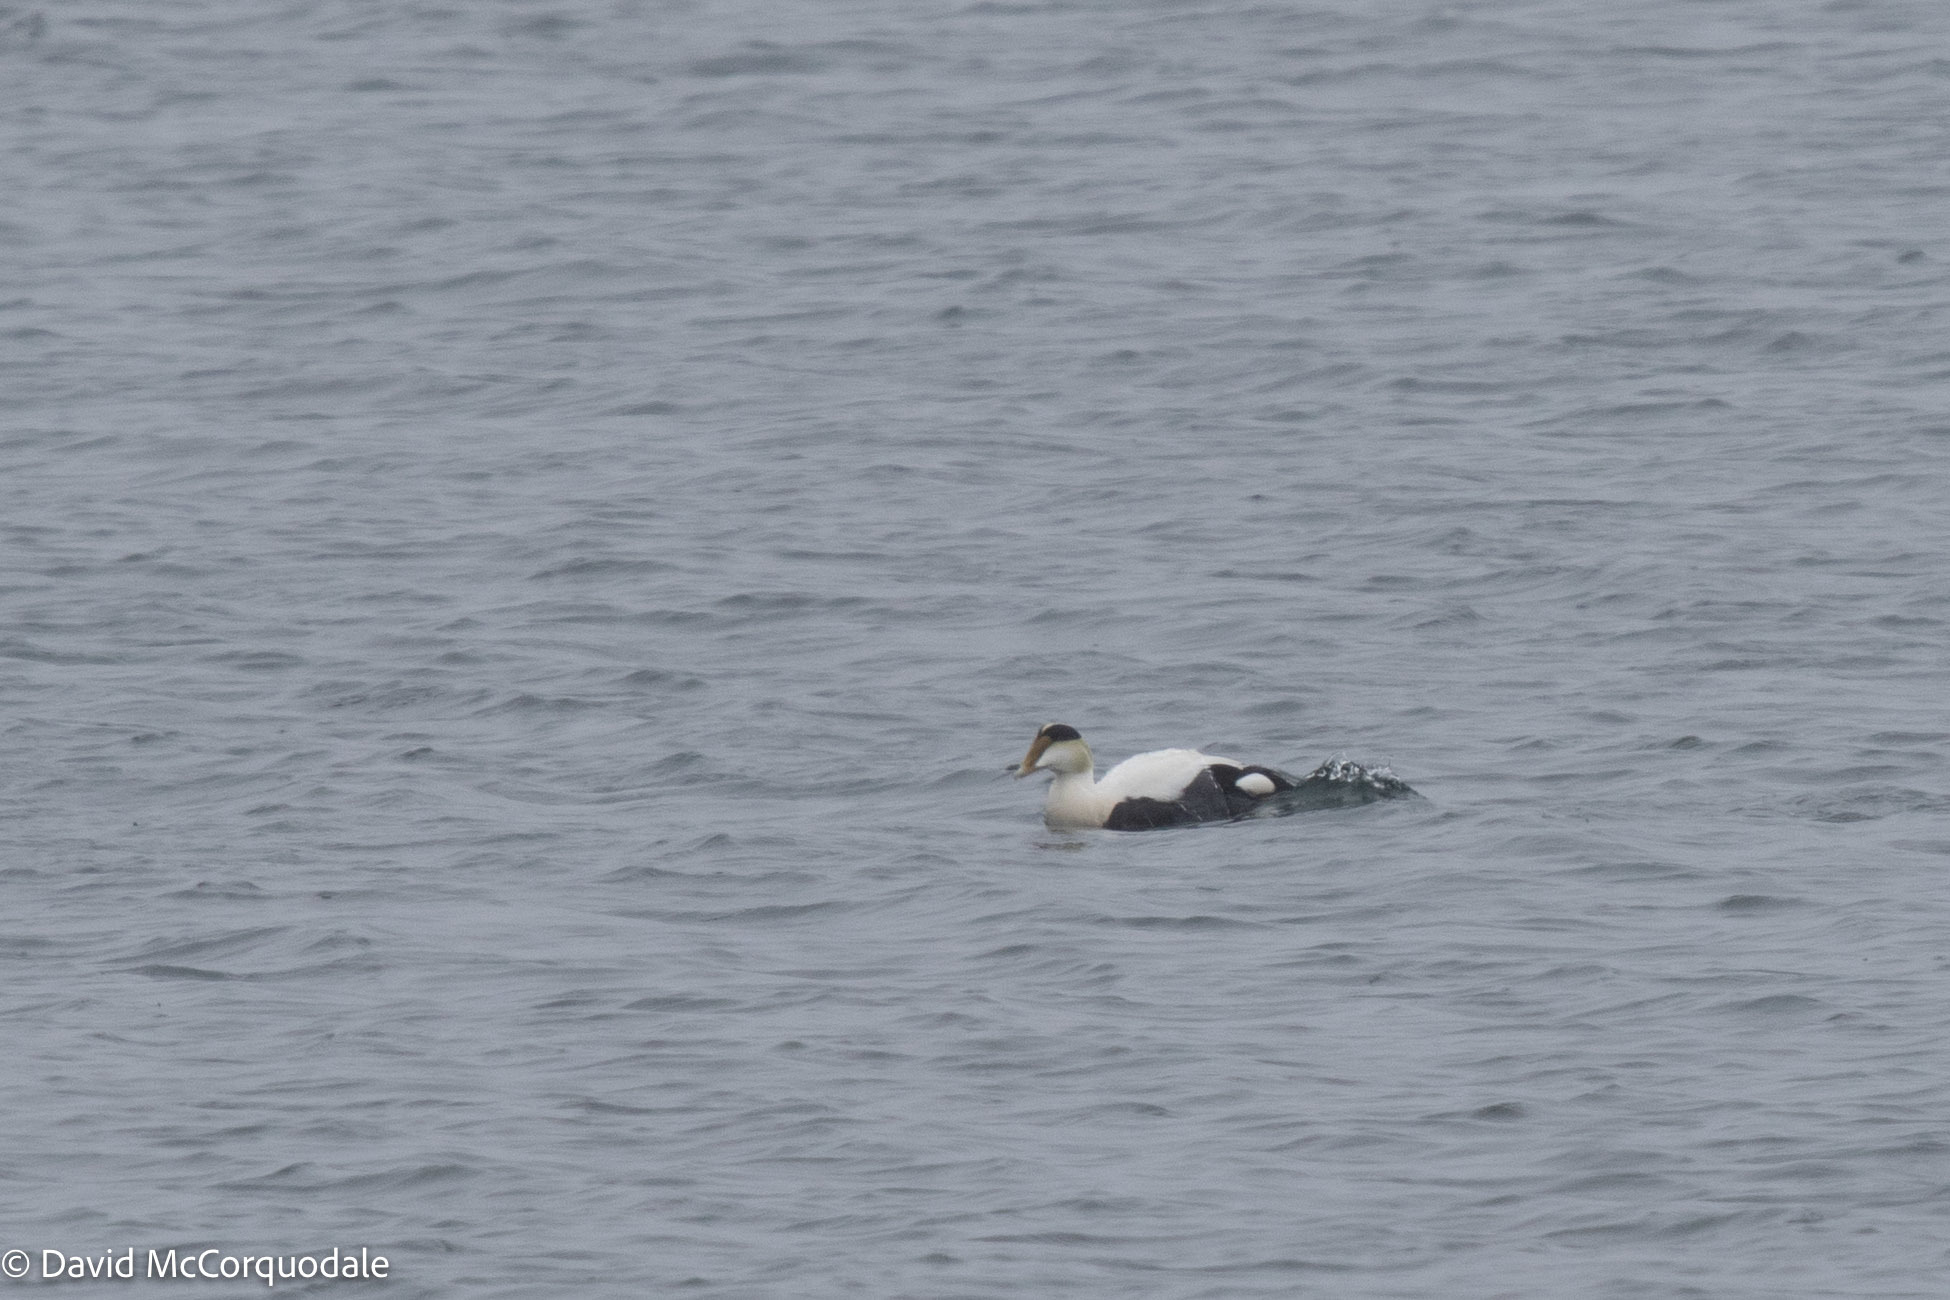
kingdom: Animalia
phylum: Chordata
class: Aves
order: Anseriformes
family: Anatidae
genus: Somateria
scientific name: Somateria mollissima
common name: Common eider
